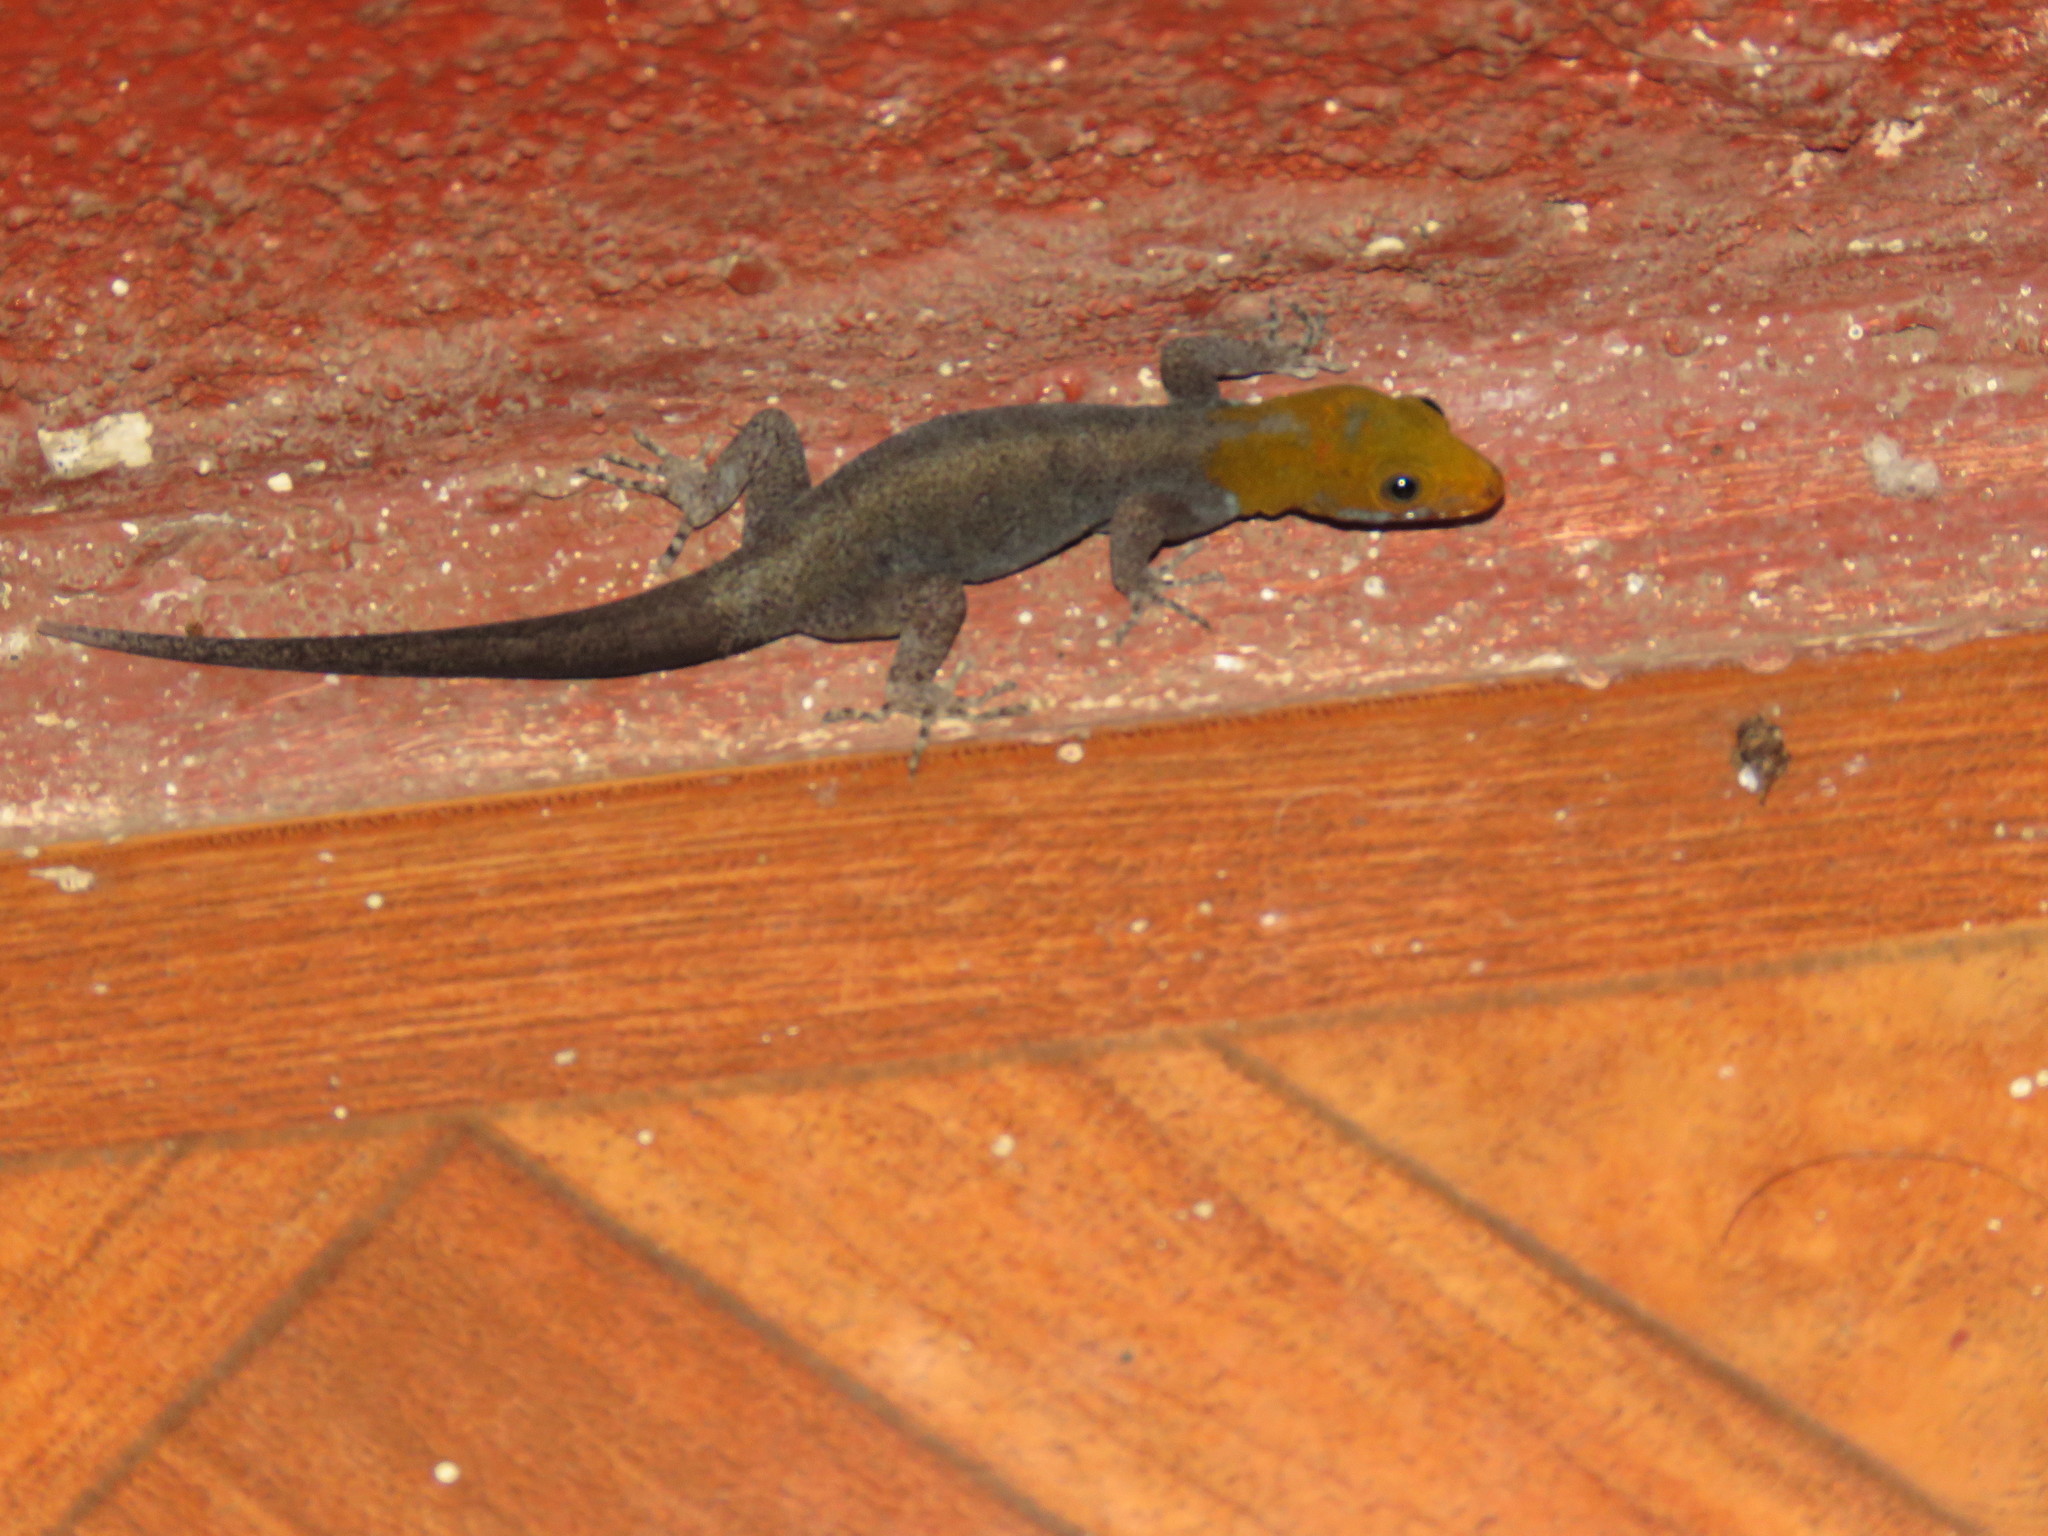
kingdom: Animalia
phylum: Chordata
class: Squamata
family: Sphaerodactylidae
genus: Gonatodes
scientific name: Gonatodes albogularis
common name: Yellow-headed gecko
